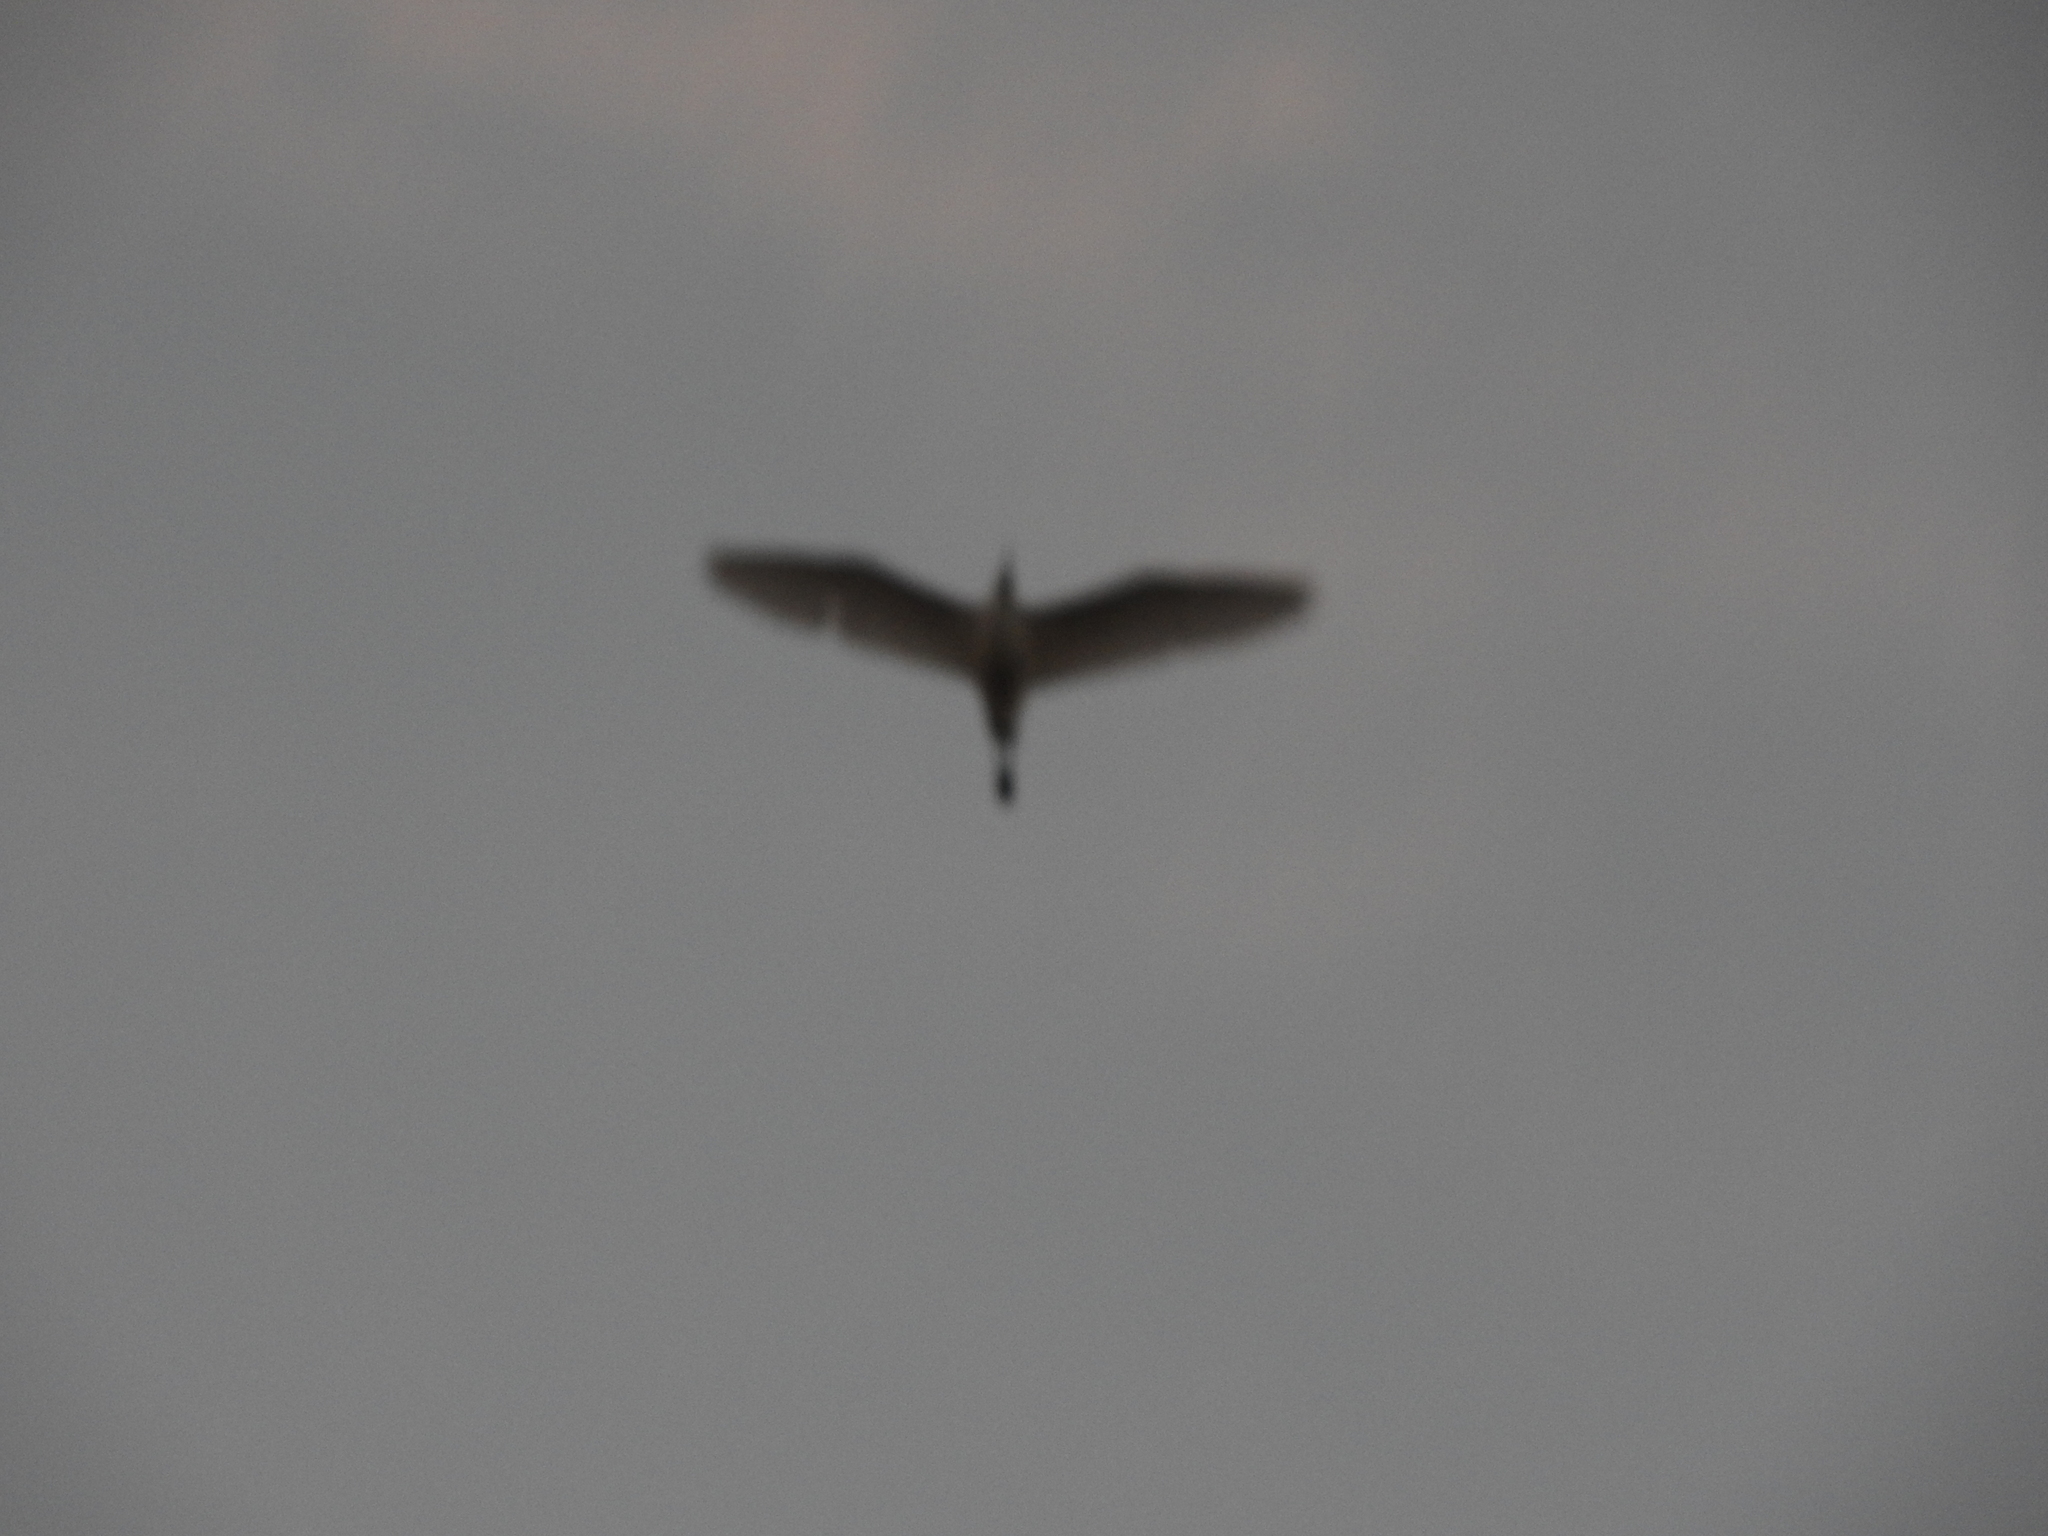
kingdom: Animalia
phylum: Chordata
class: Aves
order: Pelecaniformes
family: Ardeidae
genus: Bubulcus
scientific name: Bubulcus ibis
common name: Cattle egret
